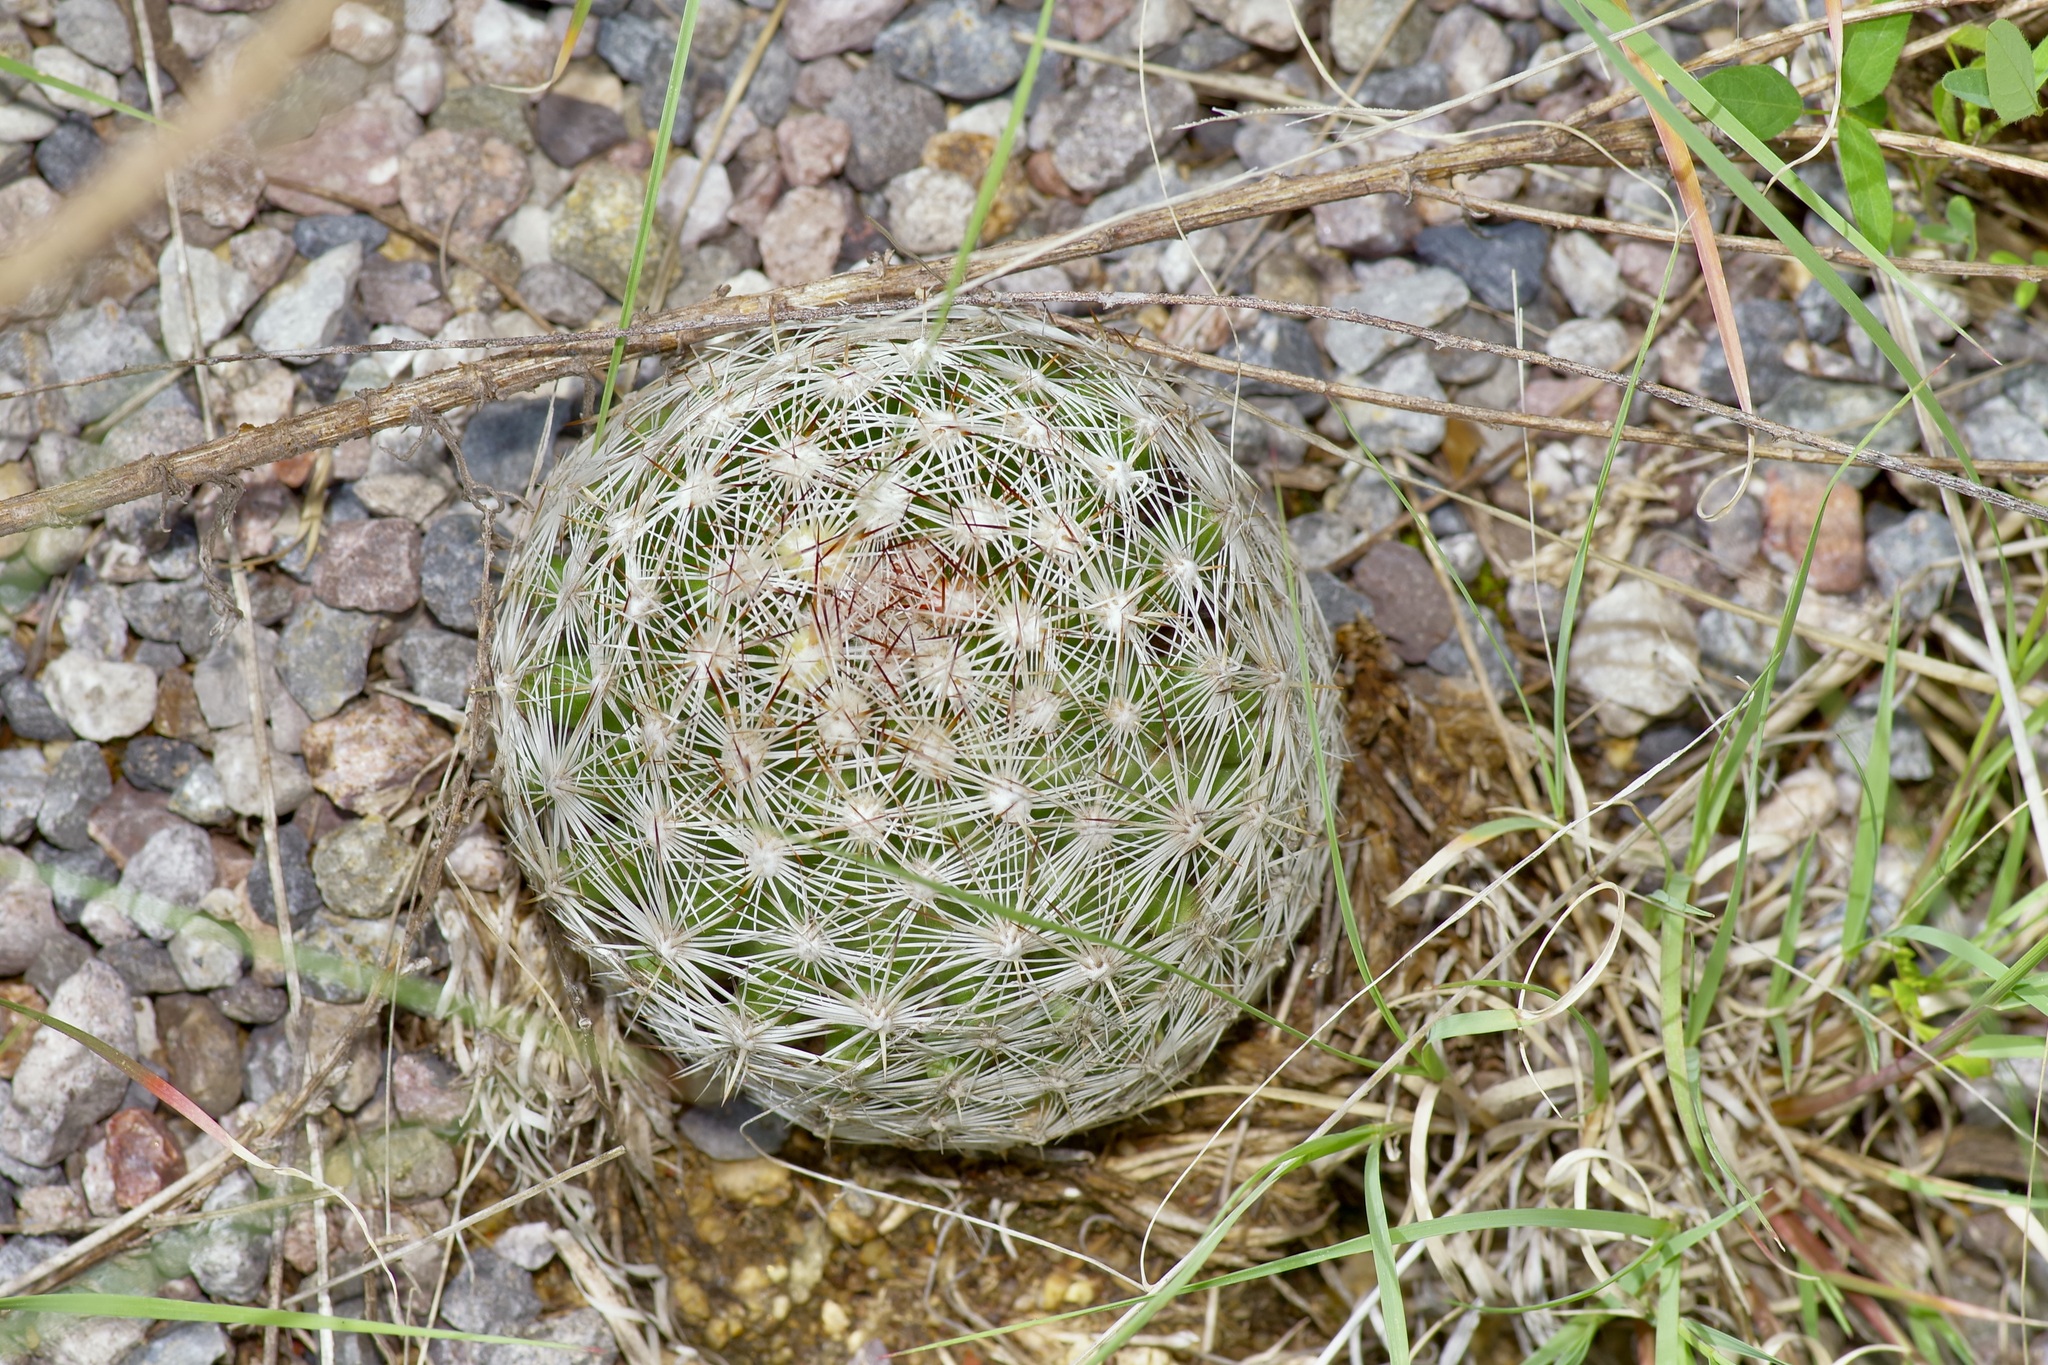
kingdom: Plantae
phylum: Tracheophyta
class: Magnoliopsida
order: Caryophyllales
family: Cactaceae
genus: Pelecyphora
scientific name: Pelecyphora vivipara
